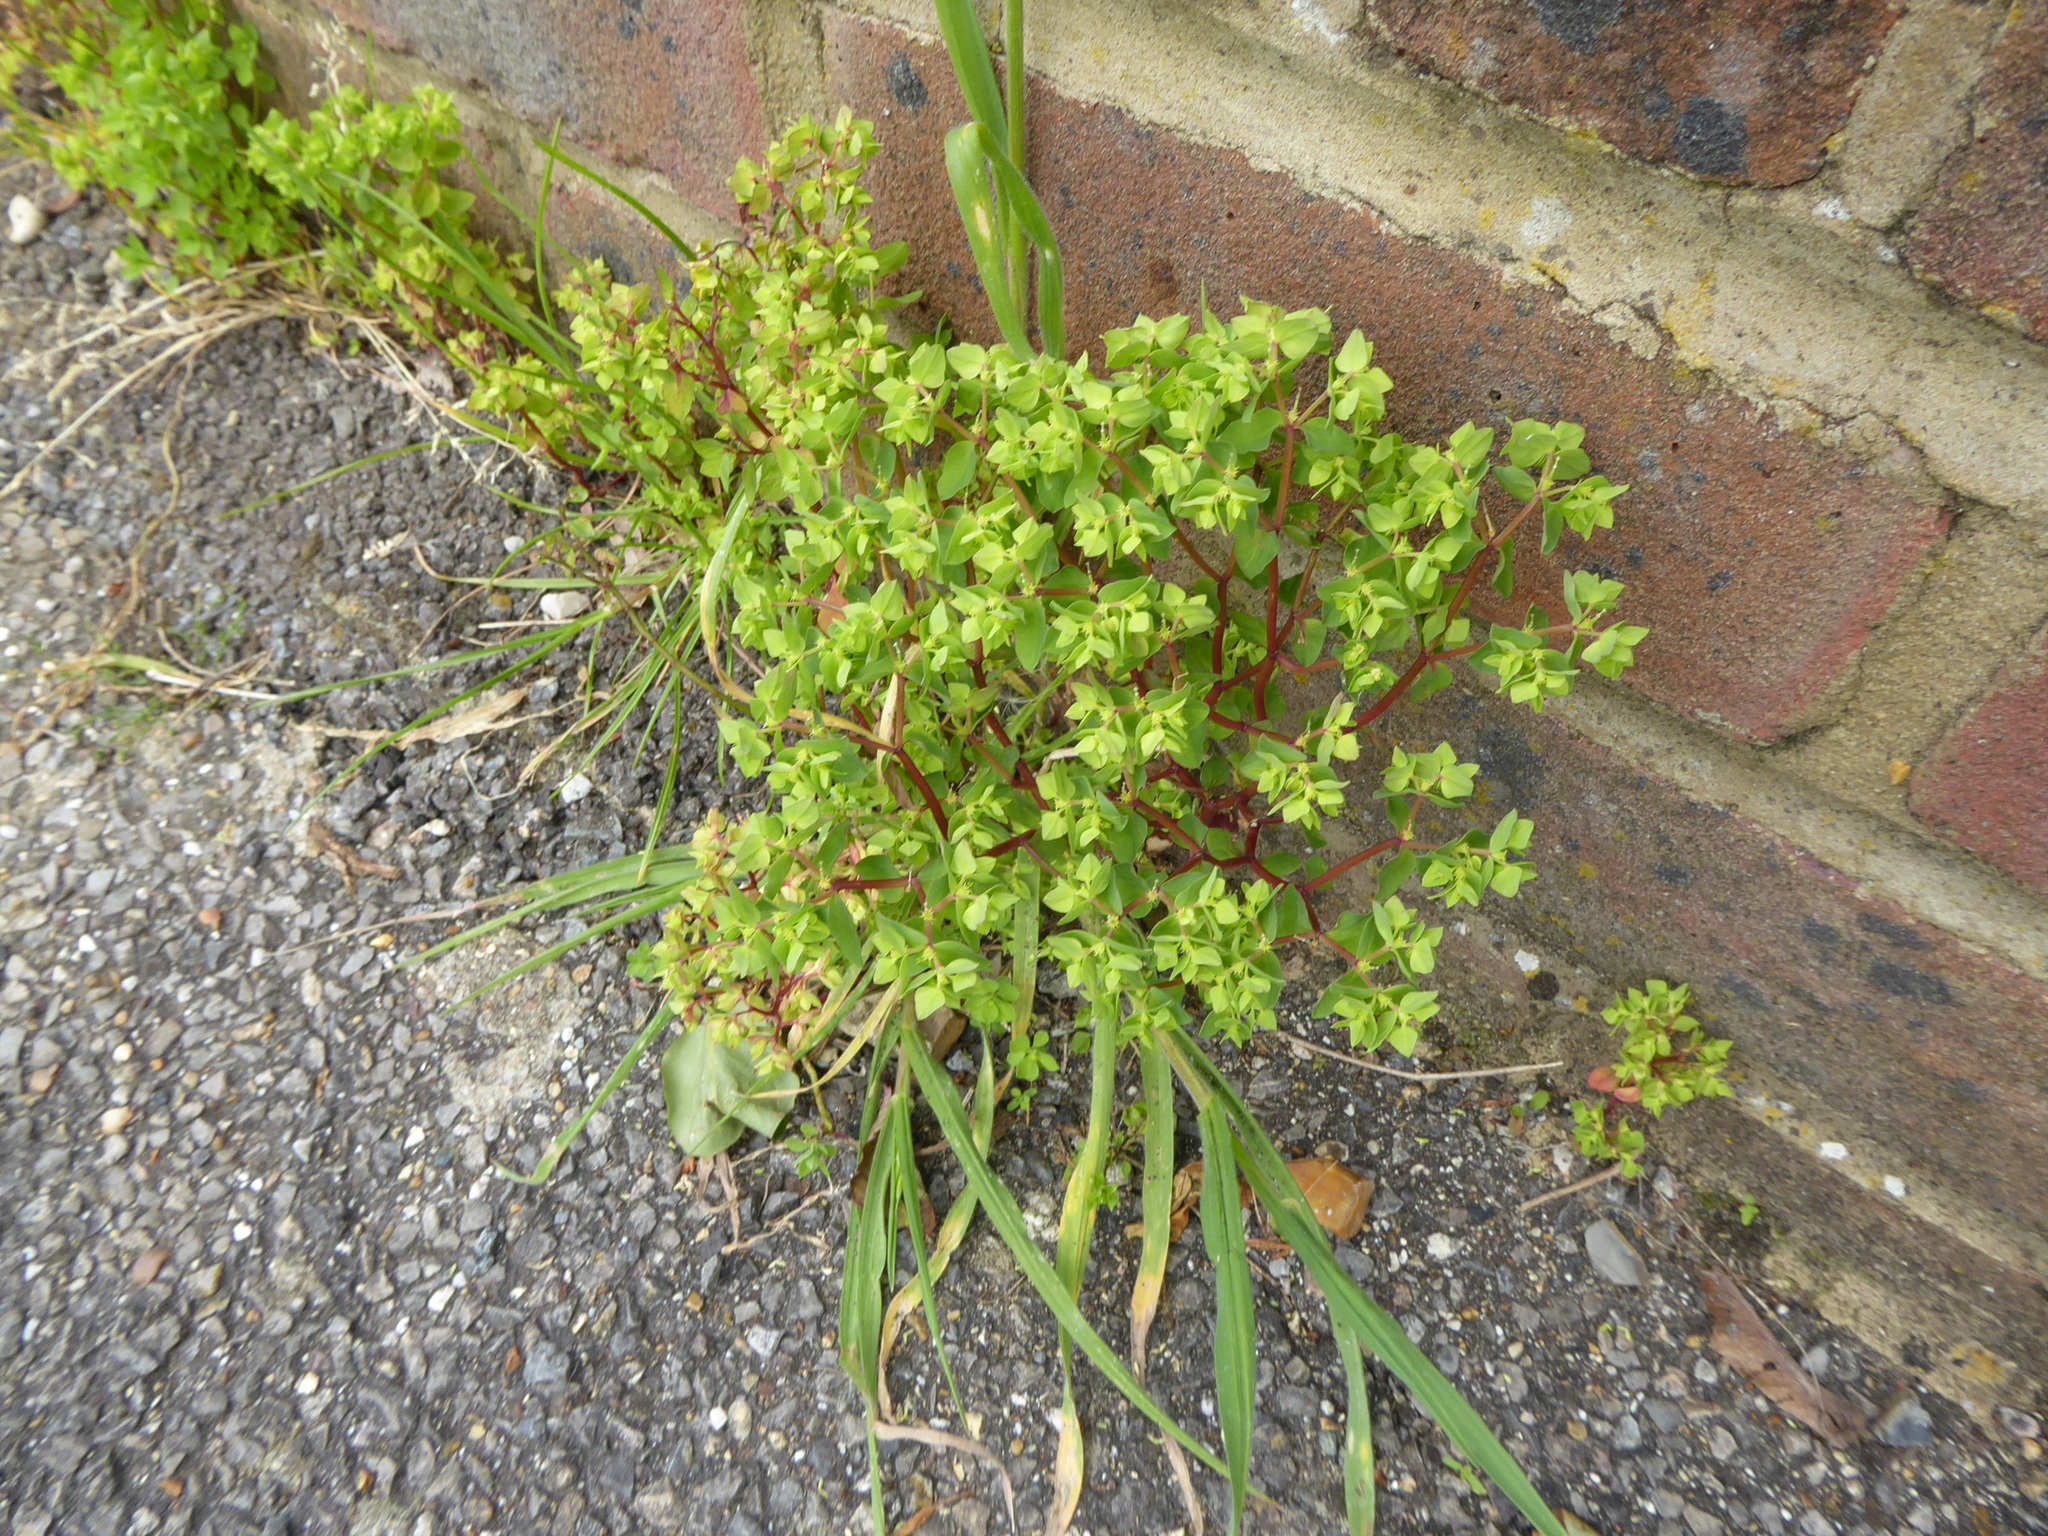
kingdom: Plantae
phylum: Tracheophyta
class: Magnoliopsida
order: Malpighiales
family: Euphorbiaceae
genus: Euphorbia
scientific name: Euphorbia peplus
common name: Petty spurge
